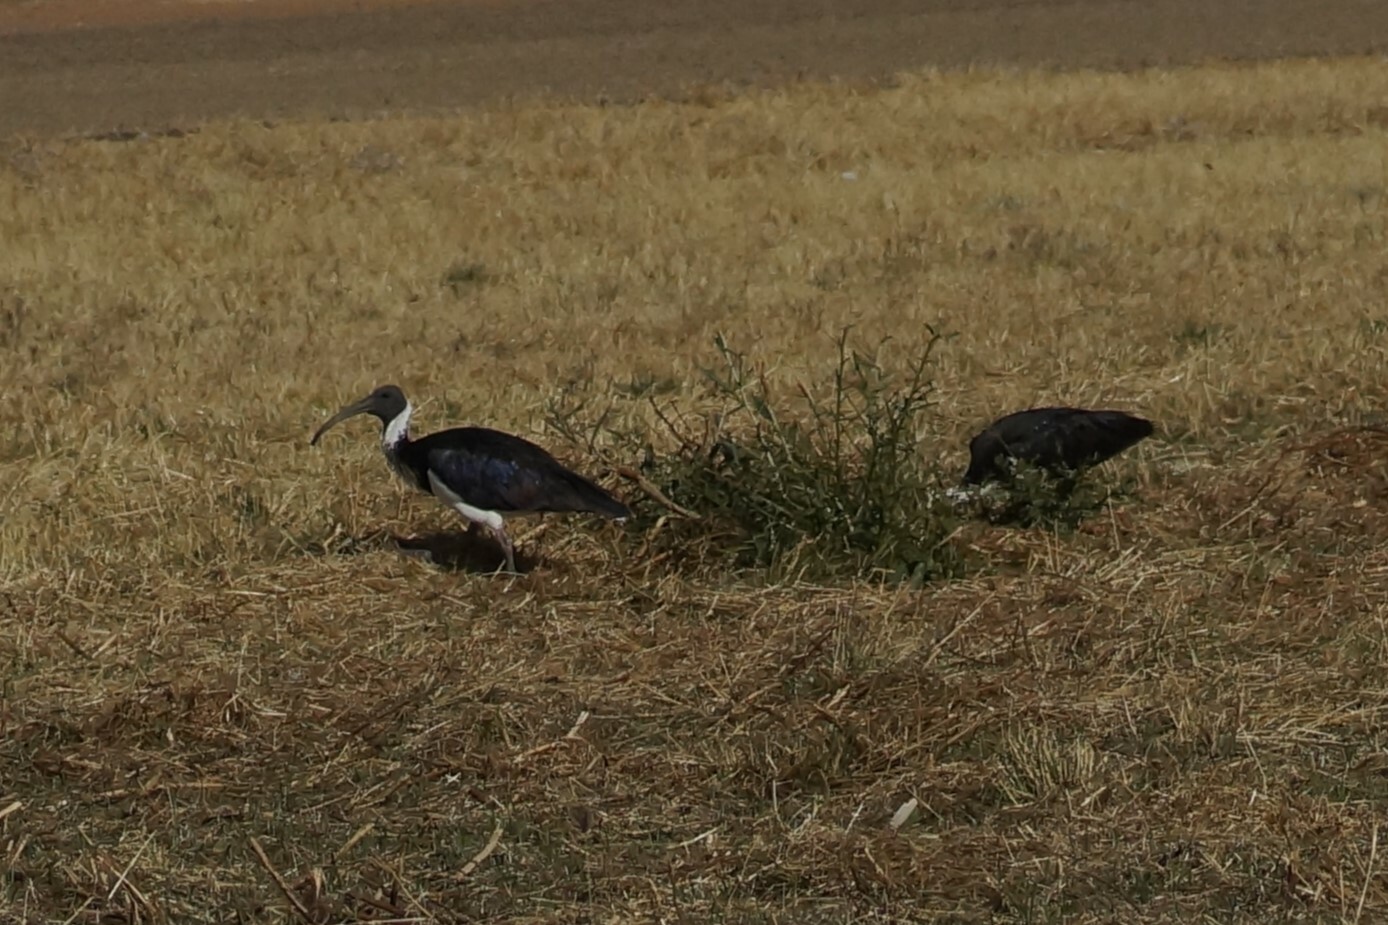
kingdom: Animalia
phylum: Chordata
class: Aves
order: Pelecaniformes
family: Threskiornithidae
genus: Threskiornis
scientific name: Threskiornis spinicollis
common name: Straw-necked ibis
